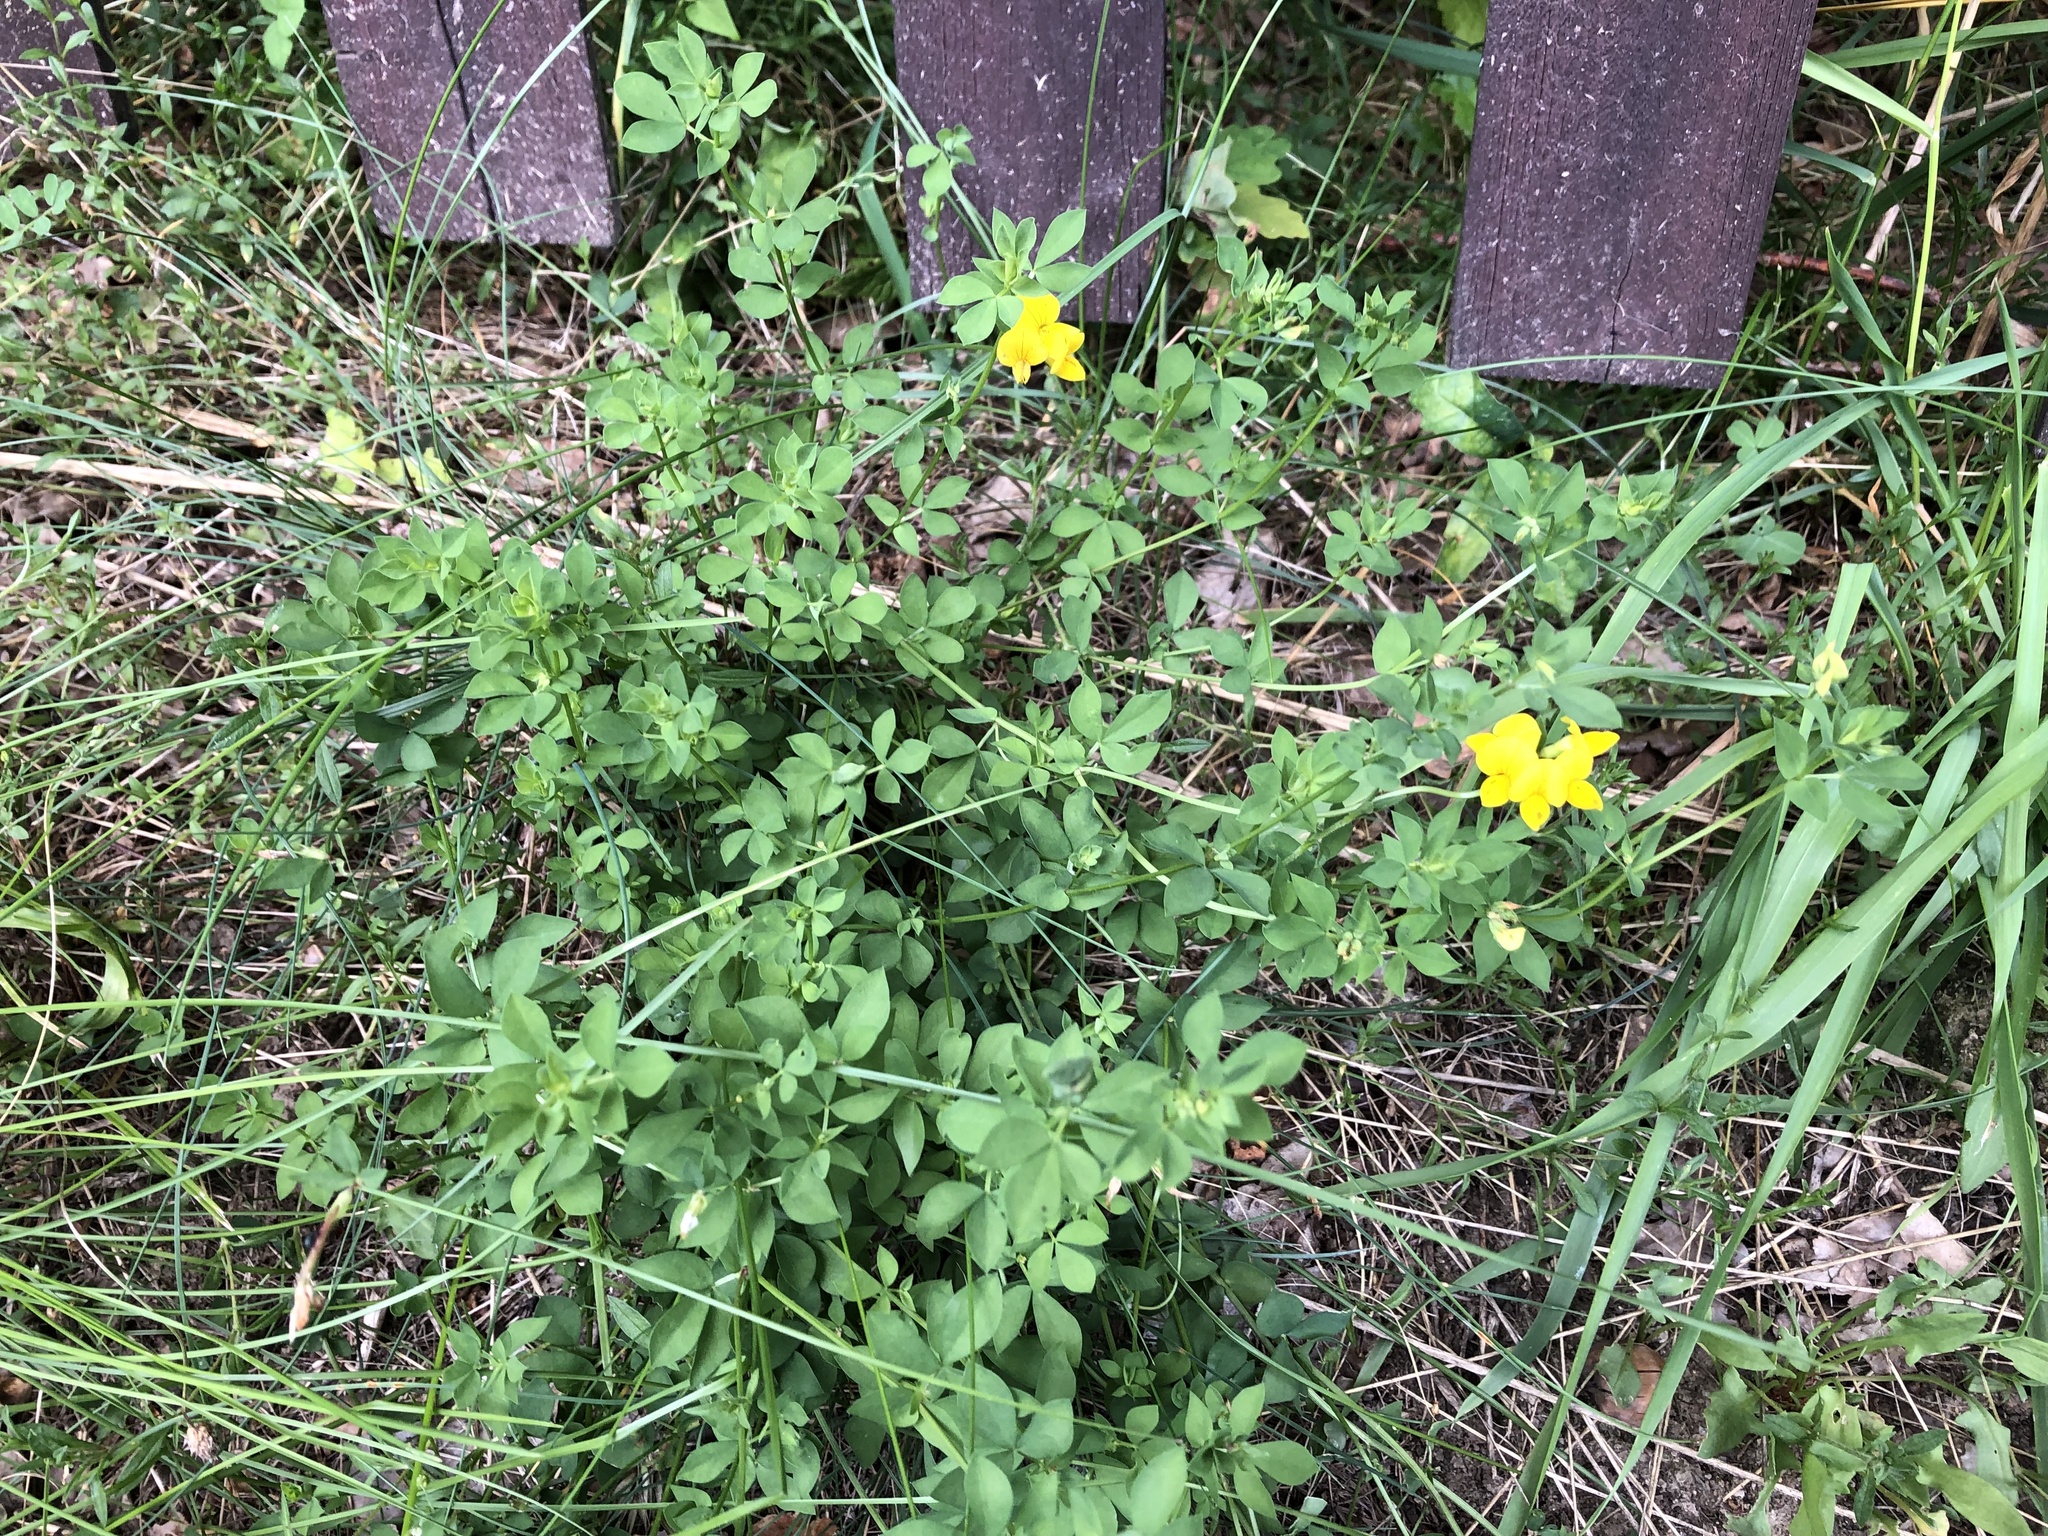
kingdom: Plantae
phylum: Tracheophyta
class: Magnoliopsida
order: Fabales
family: Fabaceae
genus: Lotus
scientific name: Lotus corniculatus
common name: Common bird's-foot-trefoil
